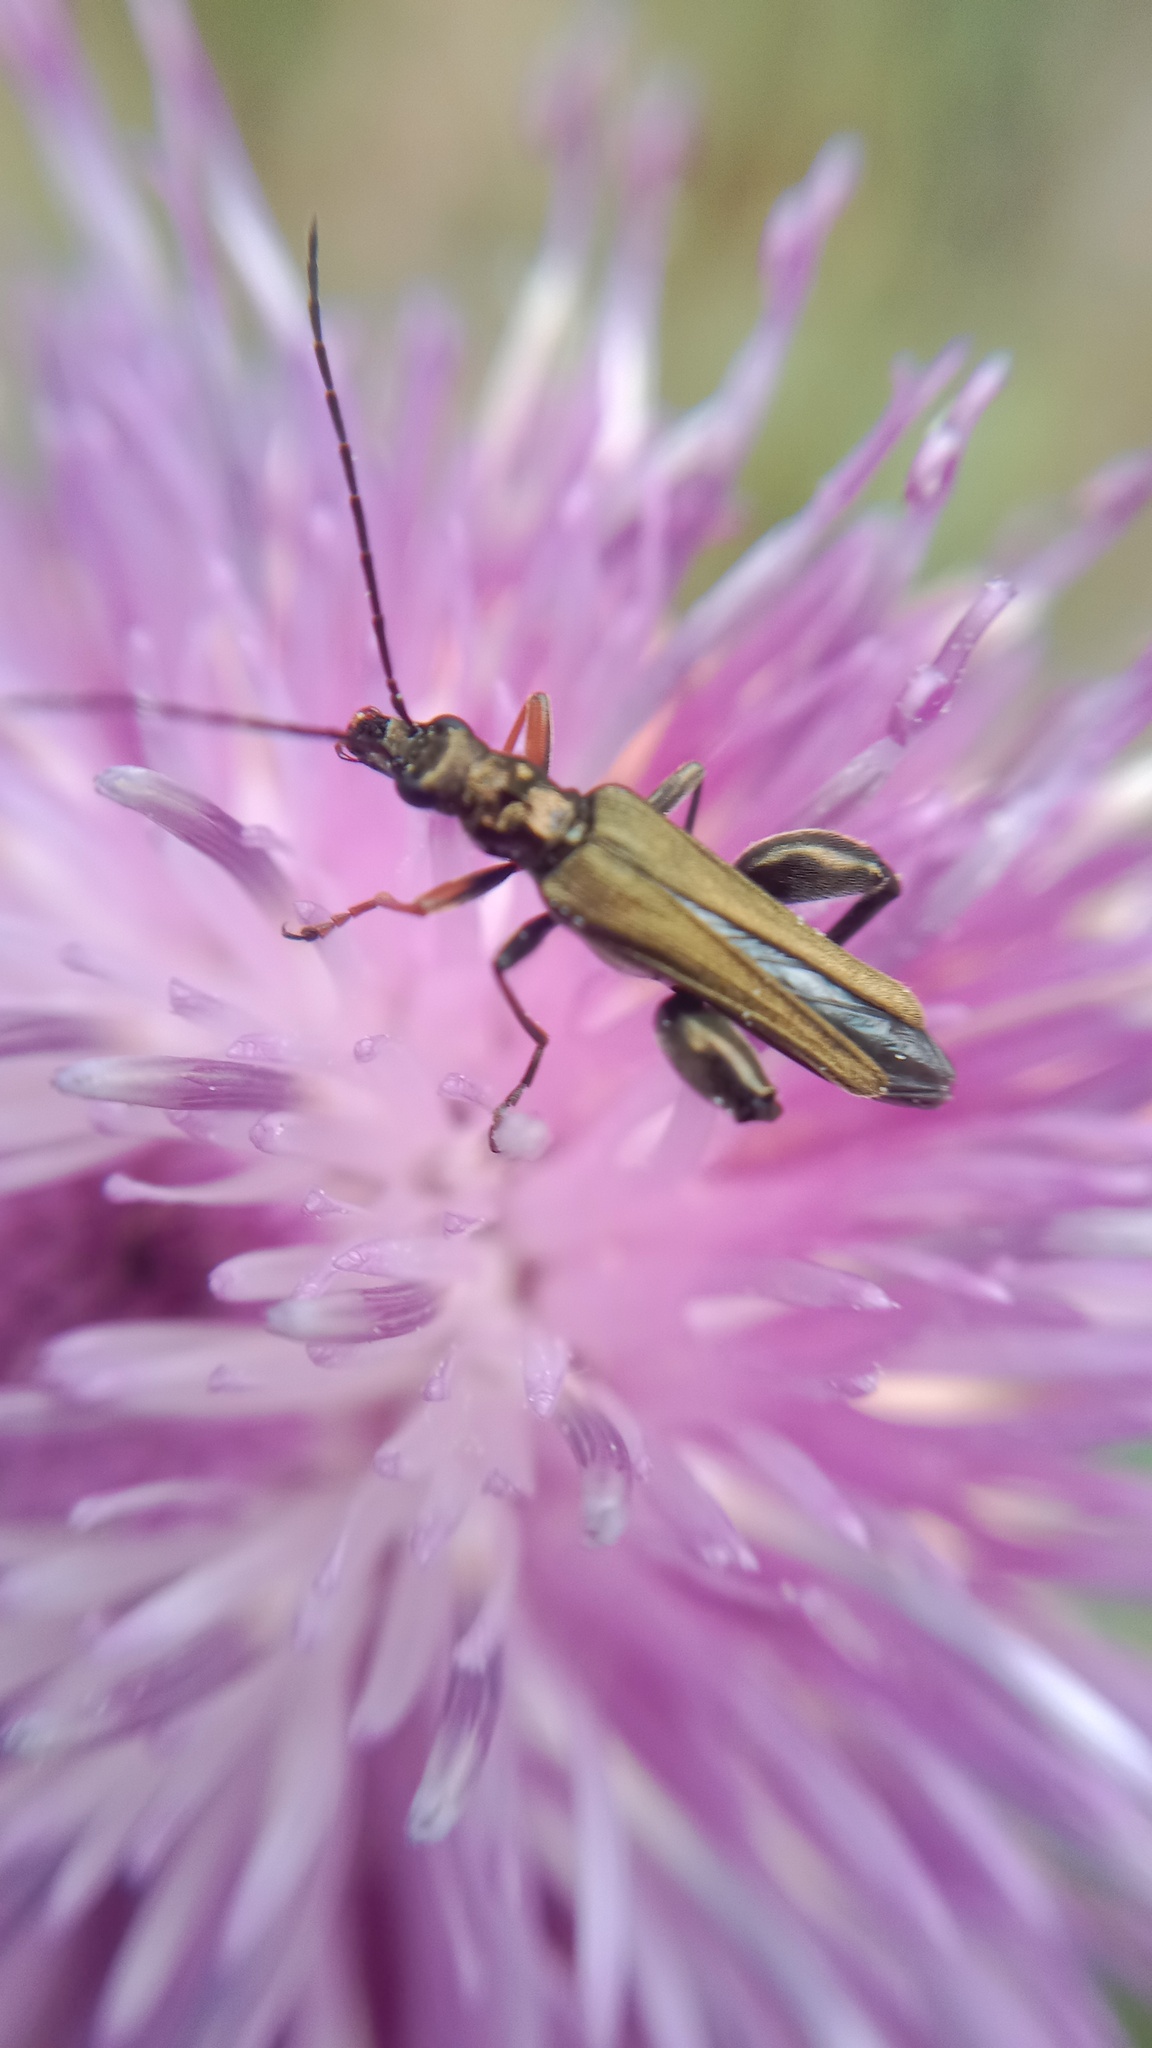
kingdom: Animalia
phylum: Arthropoda
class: Insecta
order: Coleoptera
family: Oedemeridae
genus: Oedemera
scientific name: Oedemera flavipes
